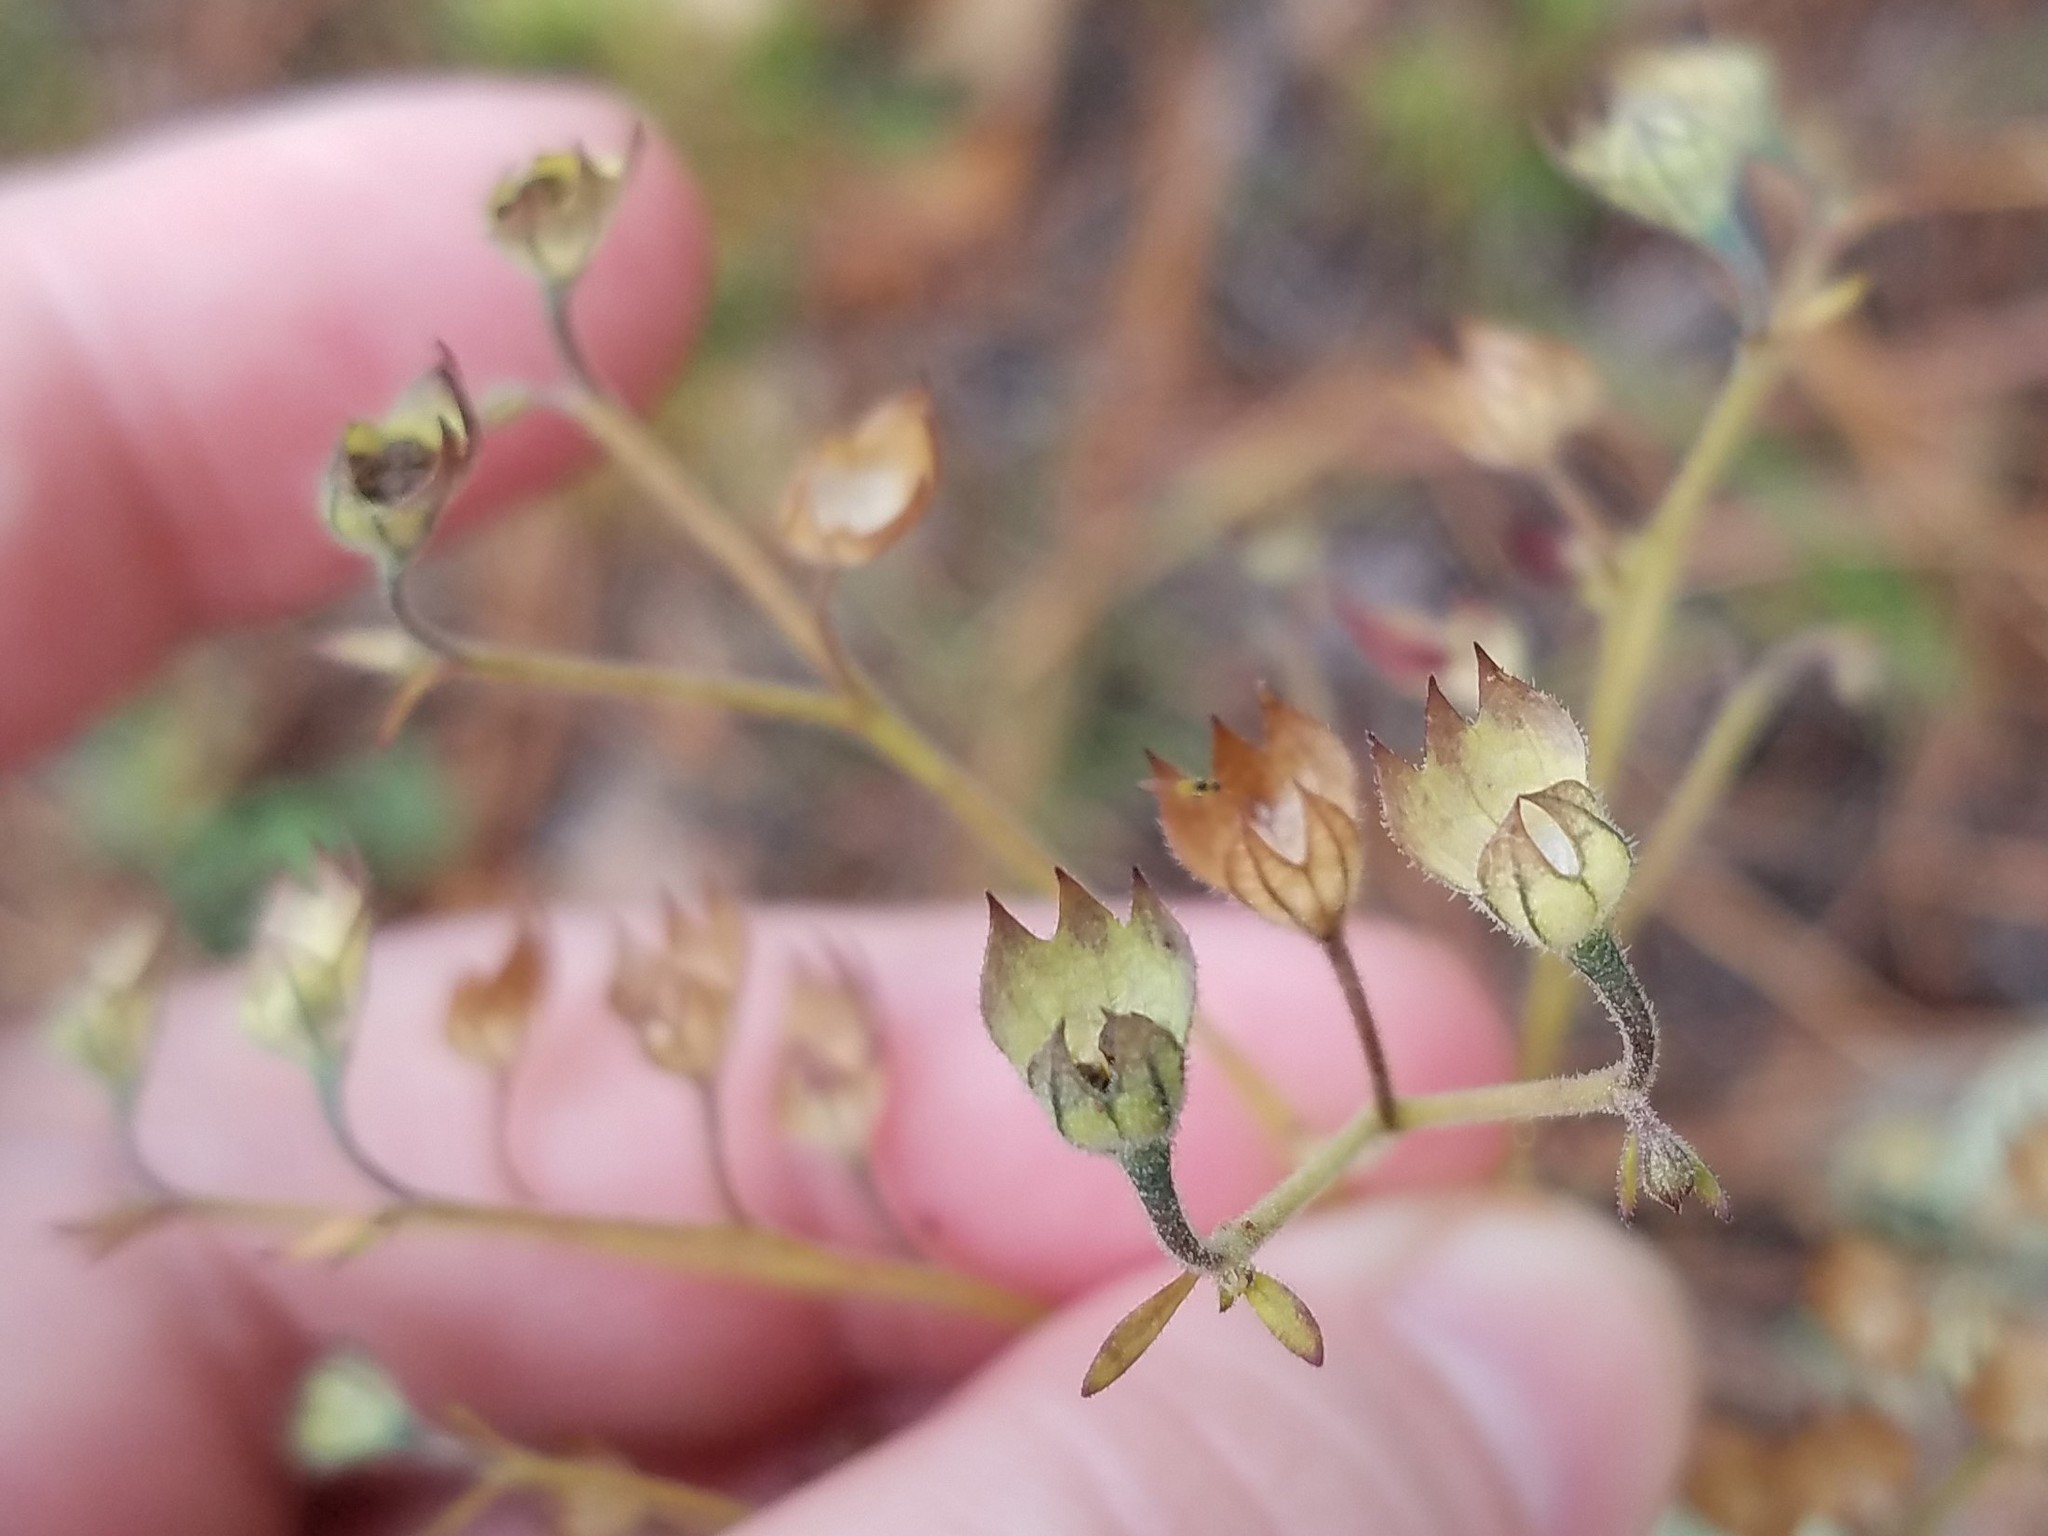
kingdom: Plantae
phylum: Tracheophyta
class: Magnoliopsida
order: Lamiales
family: Lamiaceae
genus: Trichostema
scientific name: Trichostema dichotomum
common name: Bastard pennyroyal
